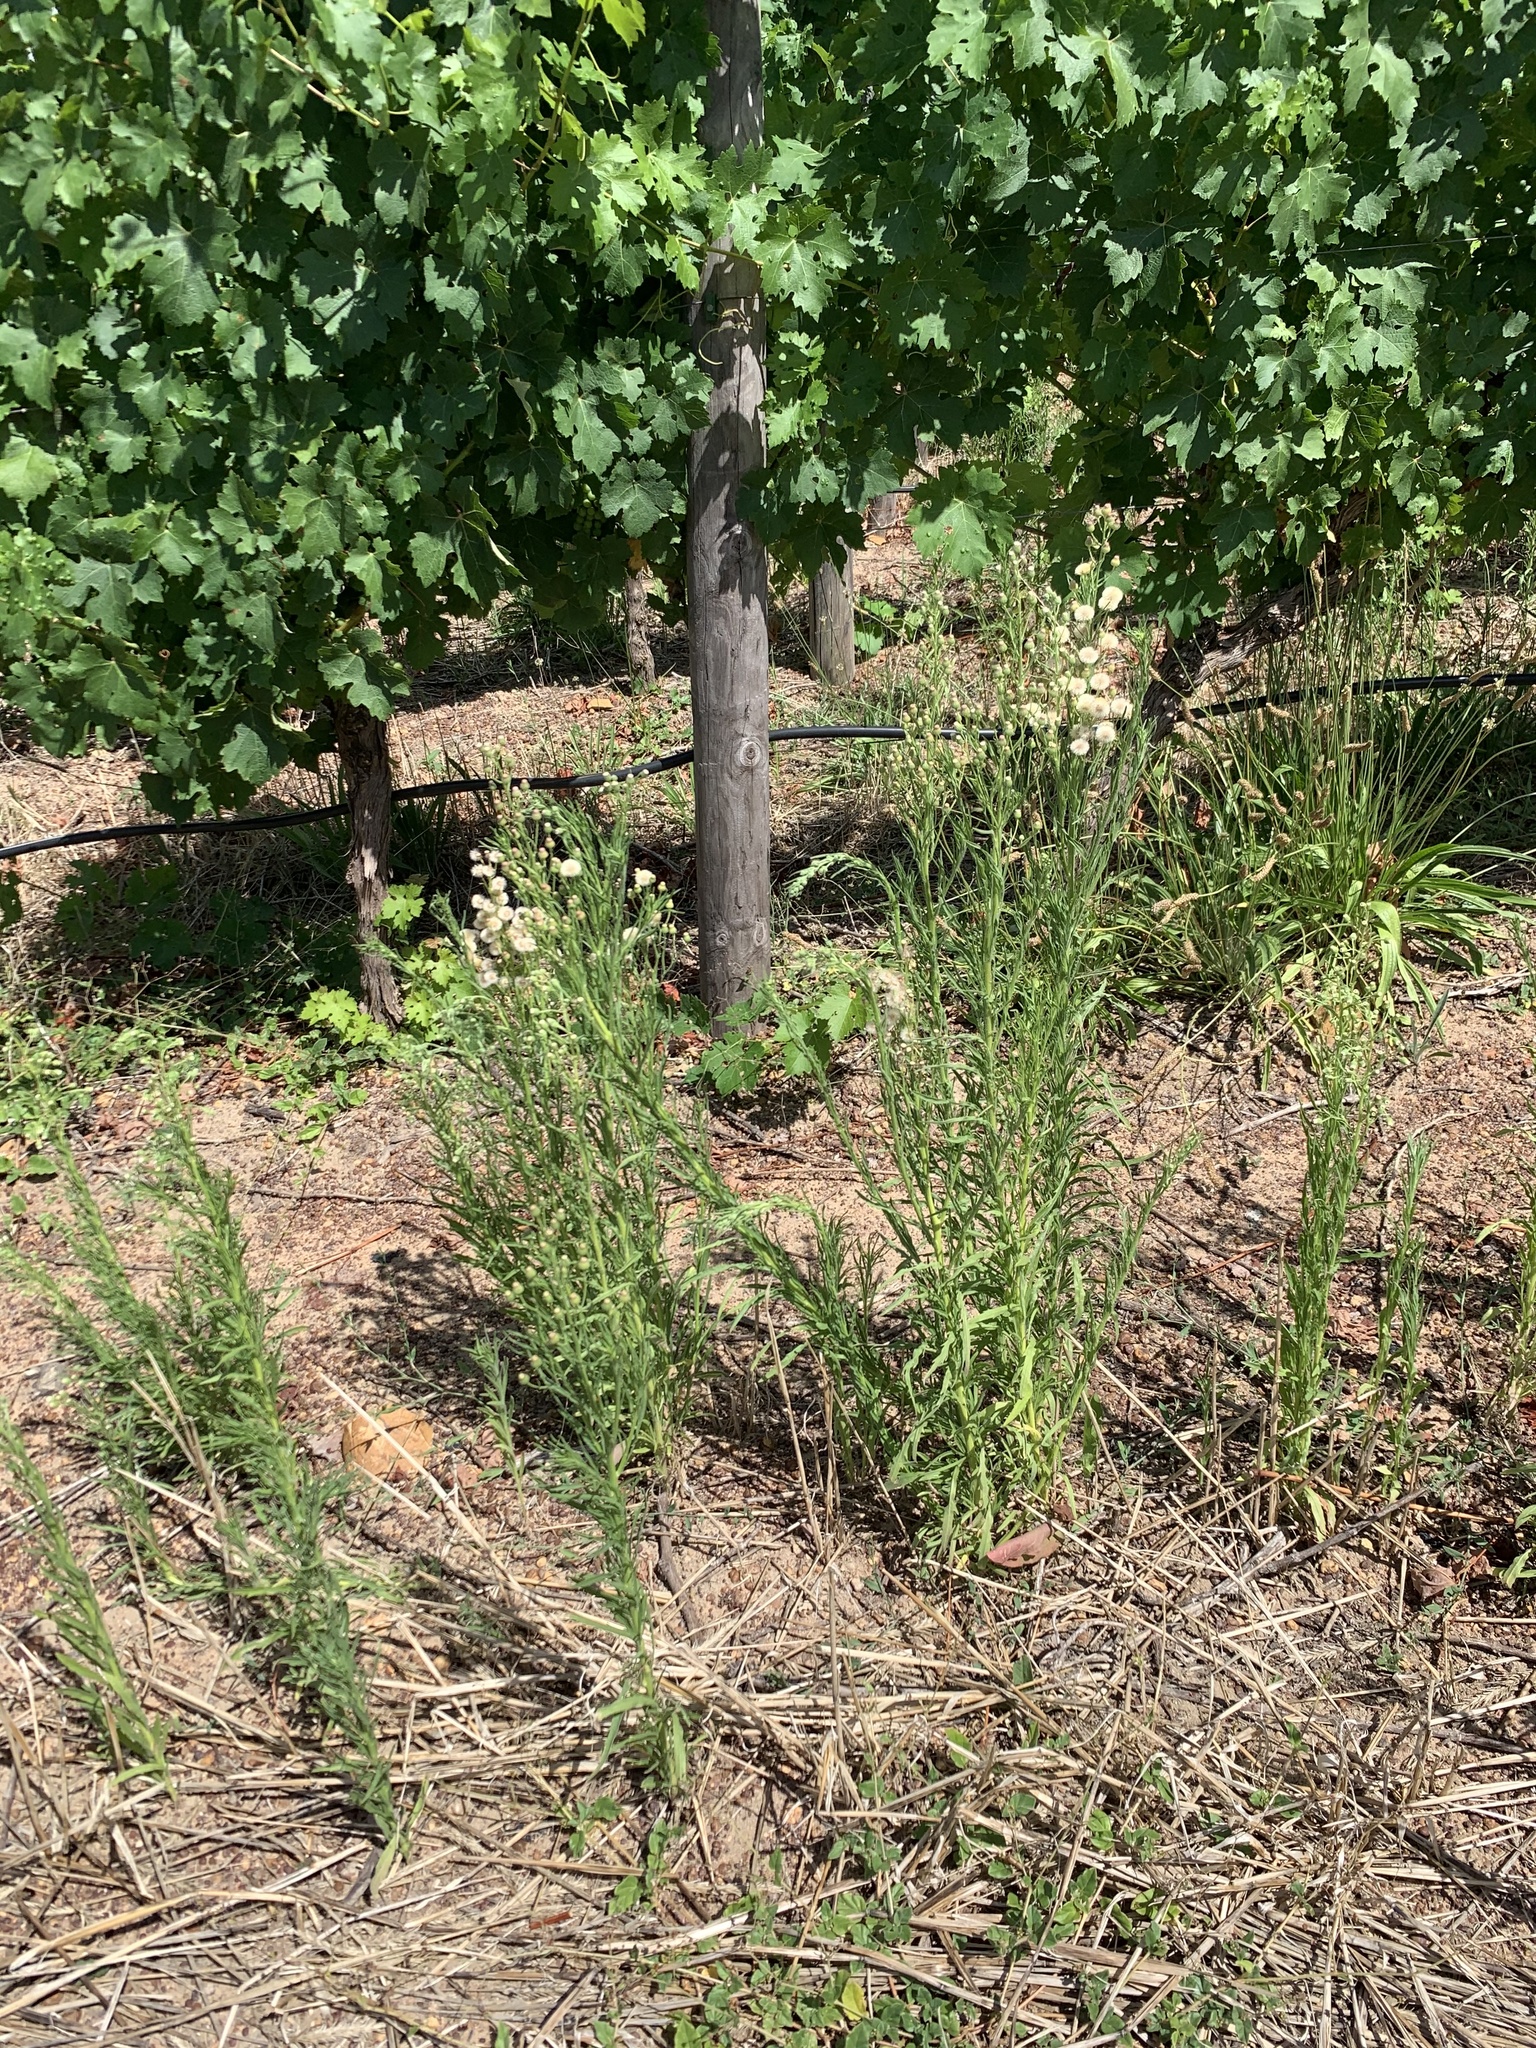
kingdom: Plantae
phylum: Tracheophyta
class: Magnoliopsida
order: Asterales
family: Asteraceae
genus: Erigeron
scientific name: Erigeron bonariensis
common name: Argentine fleabane
